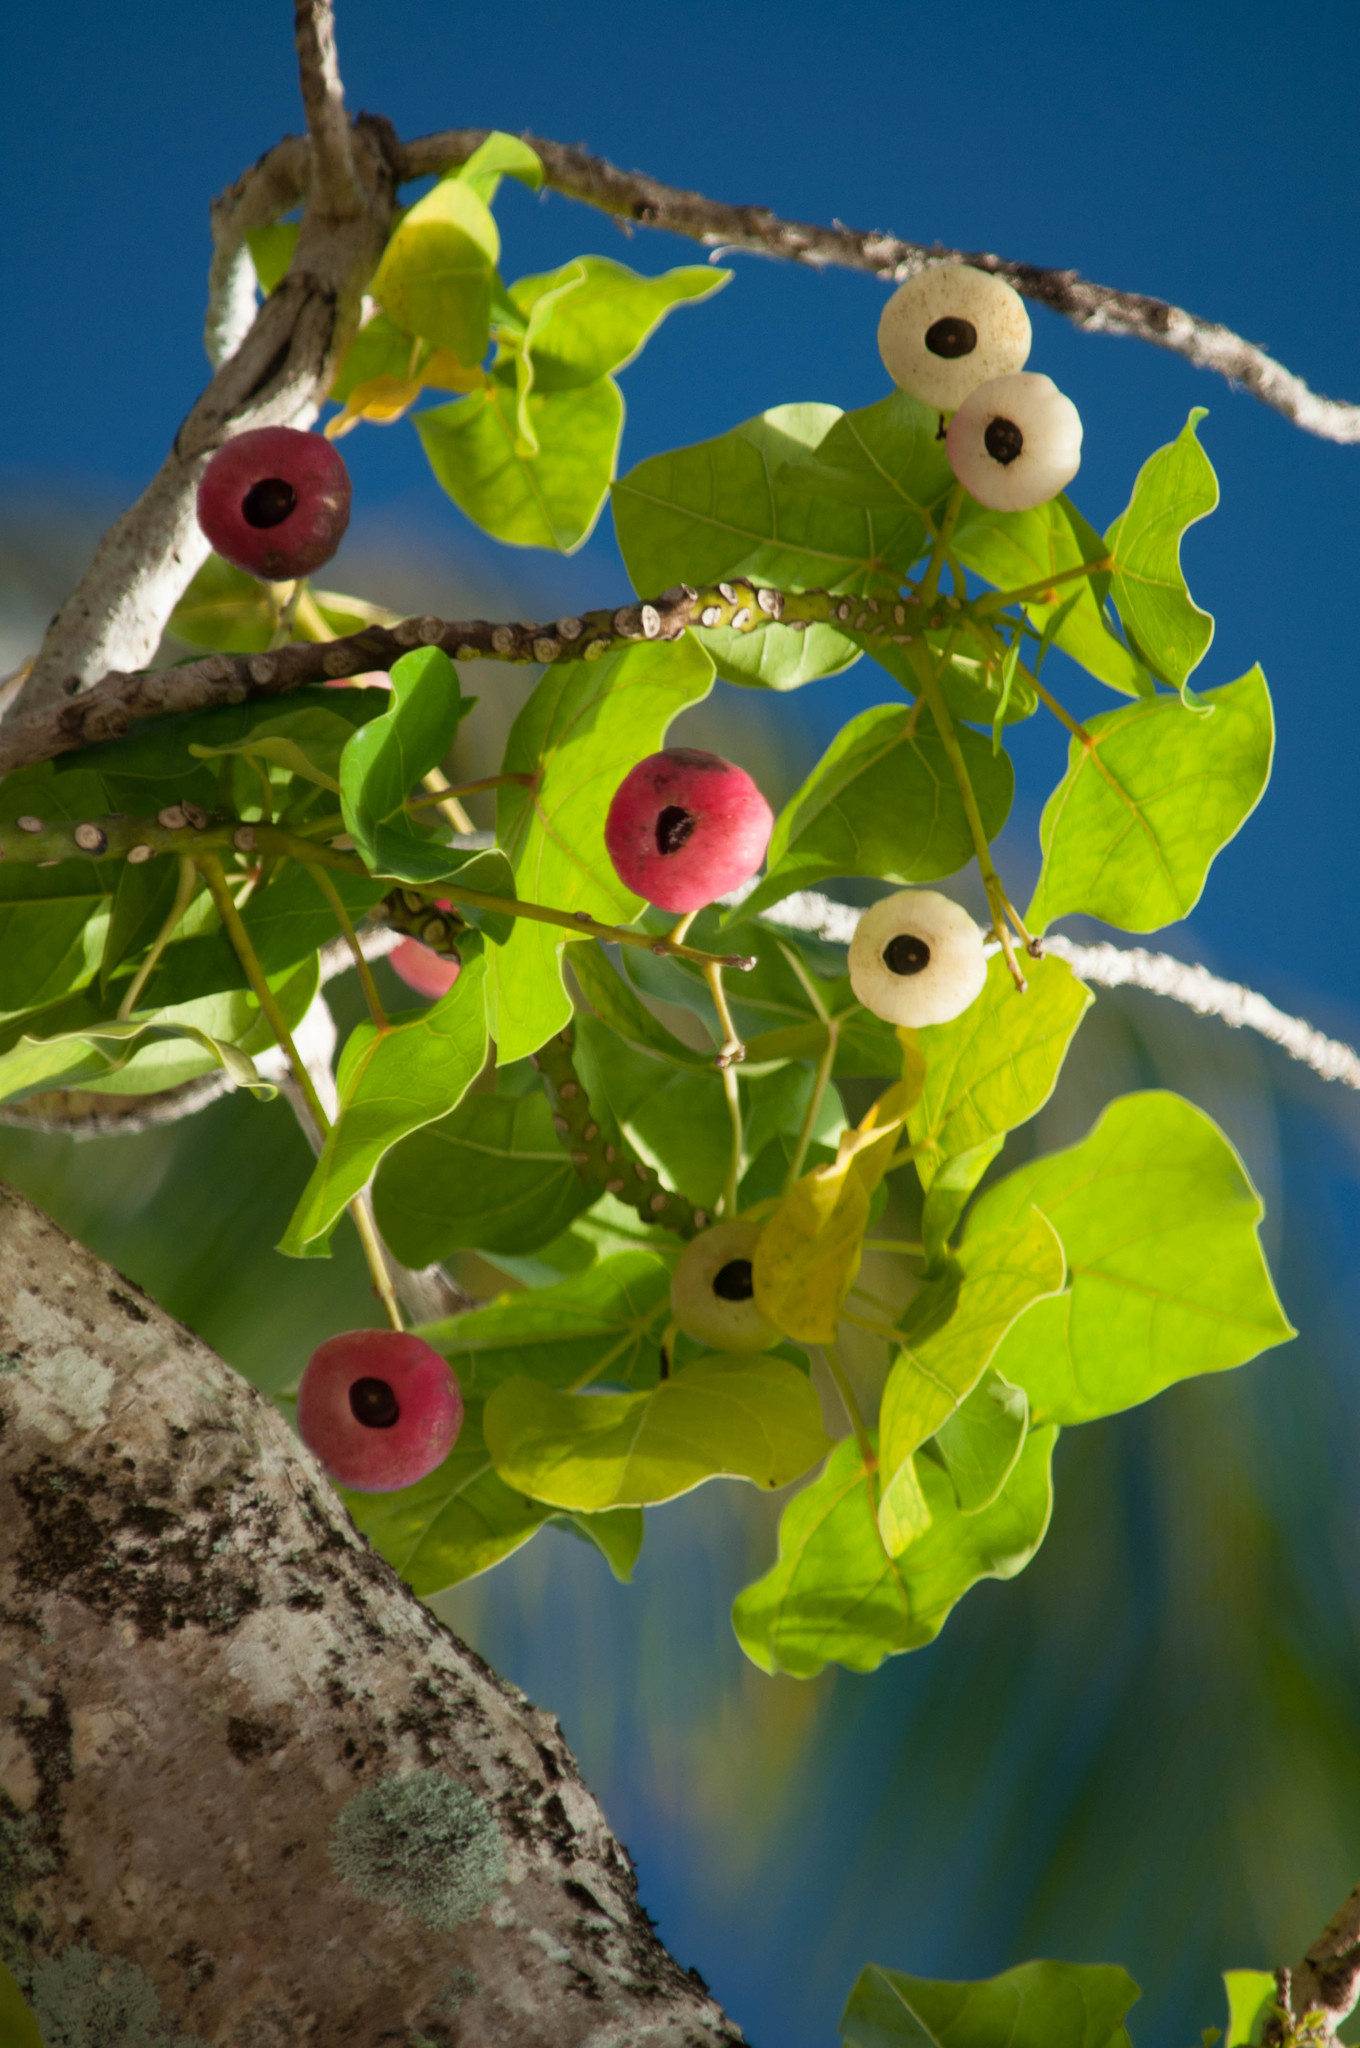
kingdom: Plantae
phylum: Tracheophyta
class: Magnoliopsida
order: Laurales
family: Hernandiaceae
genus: Hernandia
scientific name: Hernandia nymphaeifolia
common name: Sea hearse
